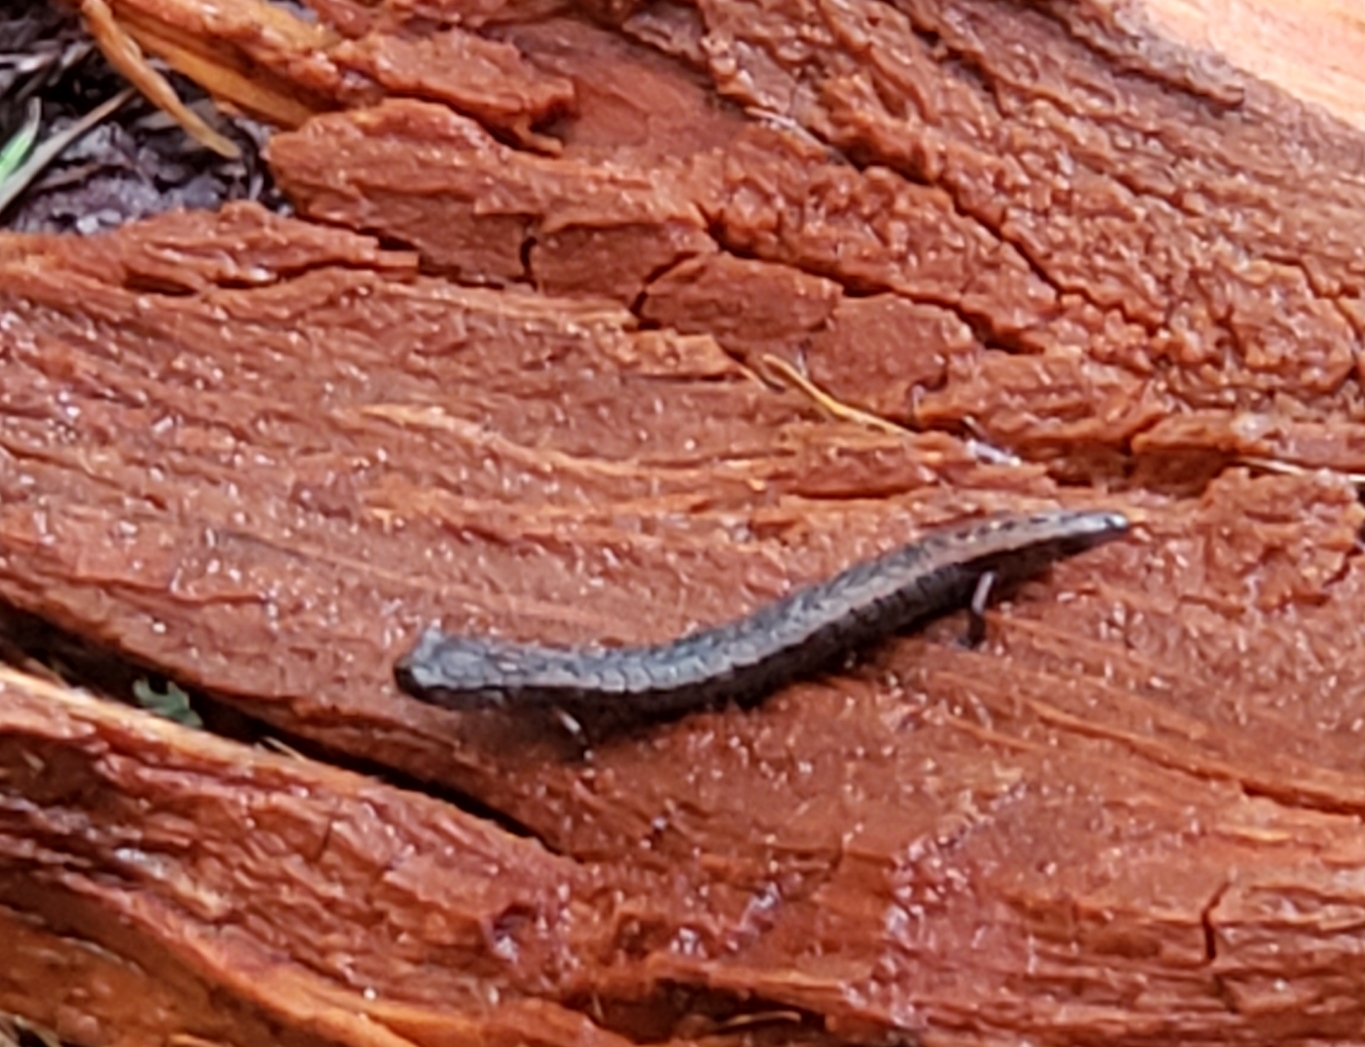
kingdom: Animalia
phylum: Chordata
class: Amphibia
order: Caudata
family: Plethodontidae
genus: Batrachoseps
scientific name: Batrachoseps attenuatus
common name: California slender salamander
